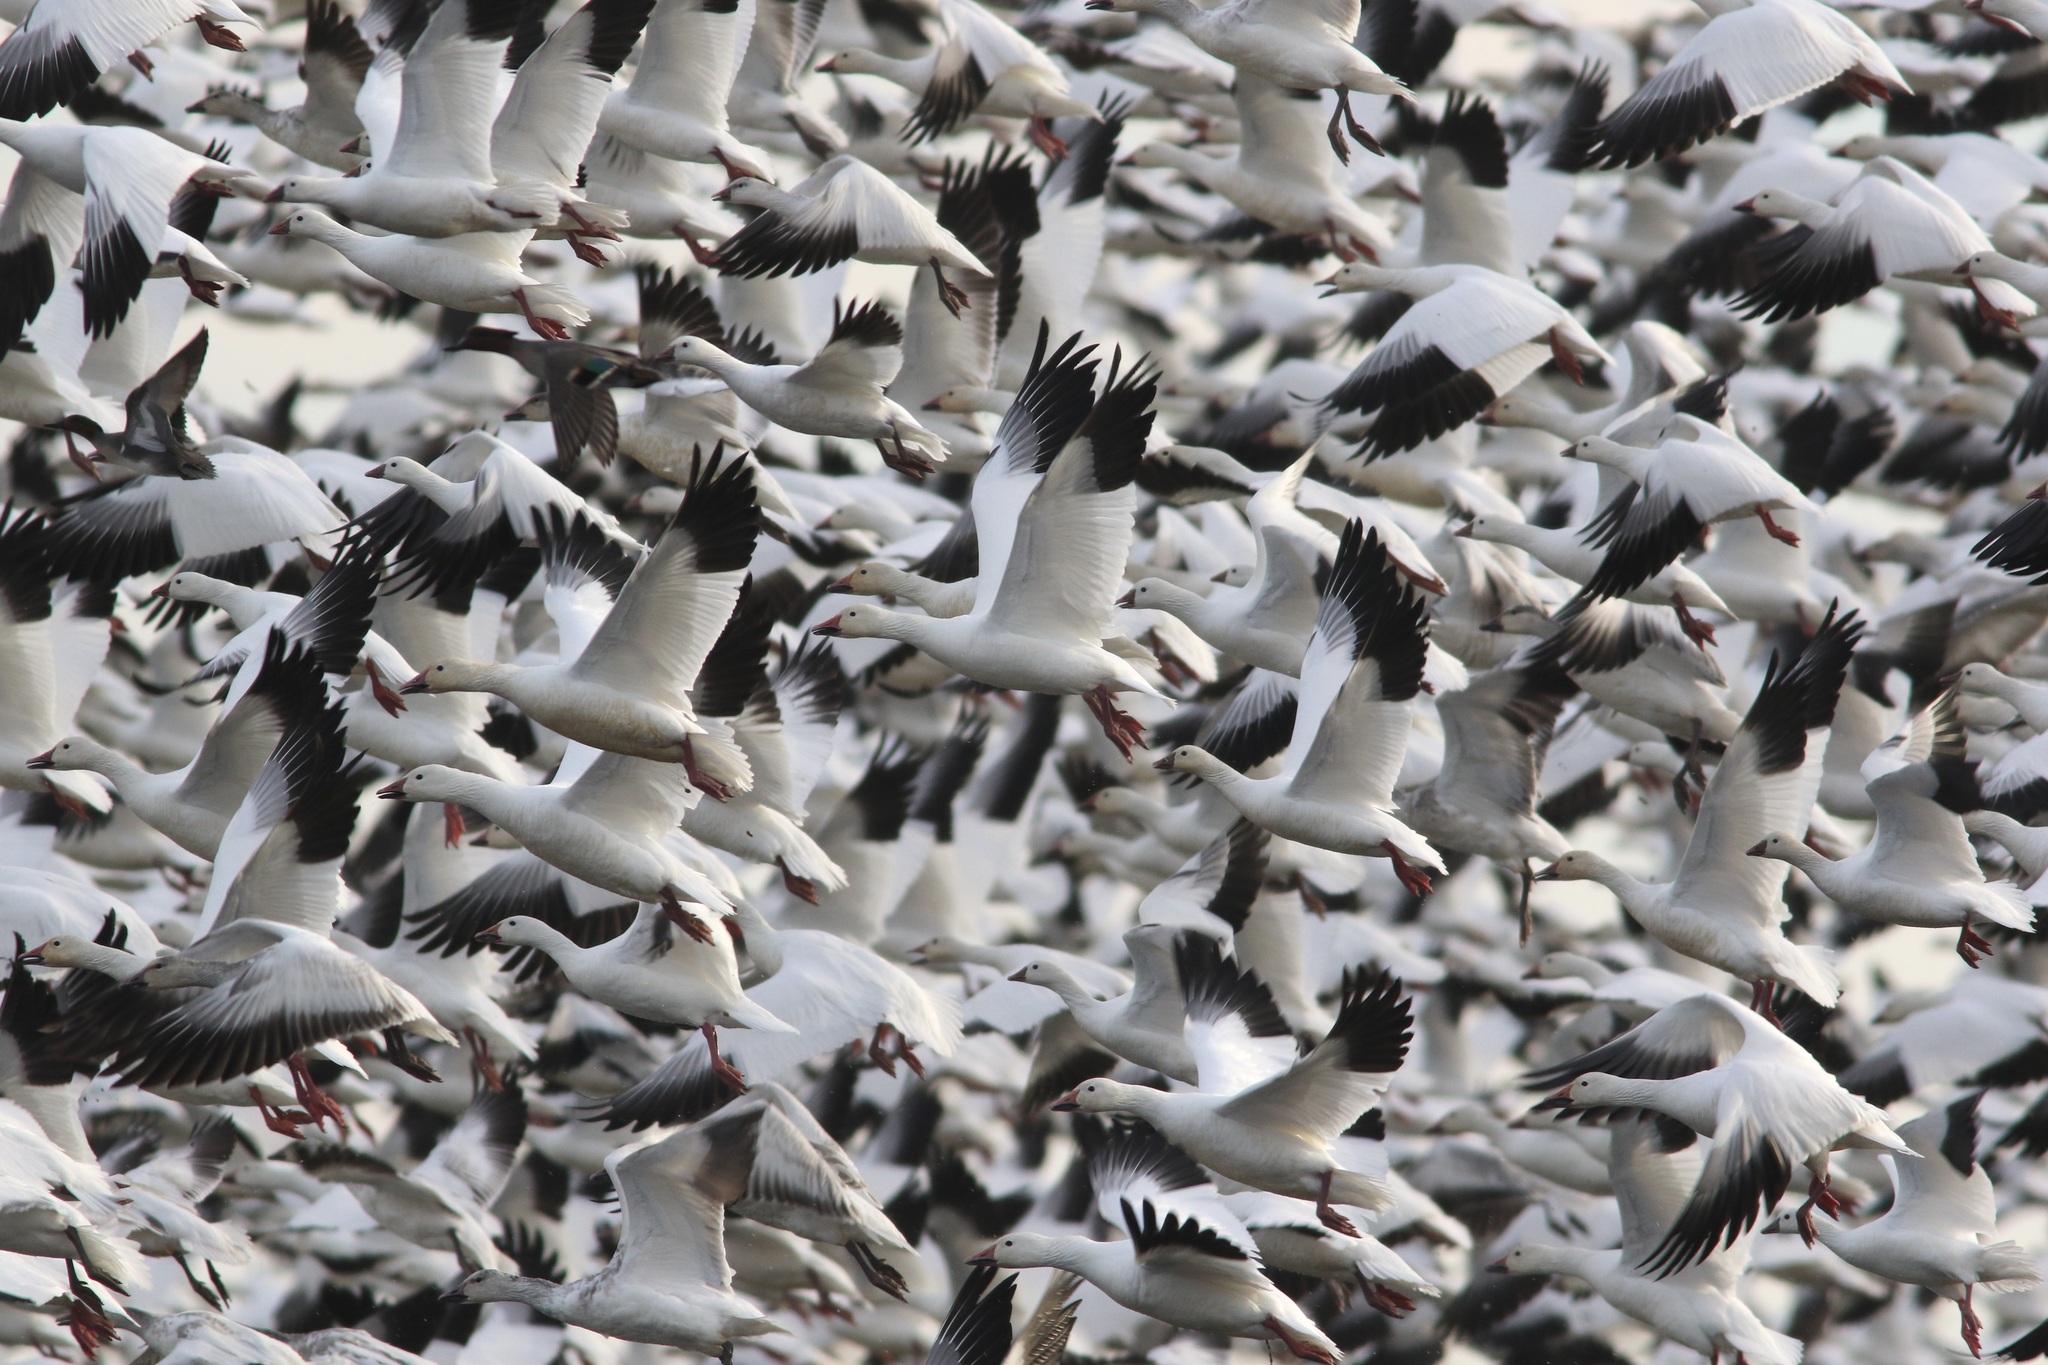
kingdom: Animalia
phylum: Chordata
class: Aves
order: Anseriformes
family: Anatidae
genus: Anser
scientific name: Anser caerulescens
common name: Snow goose
